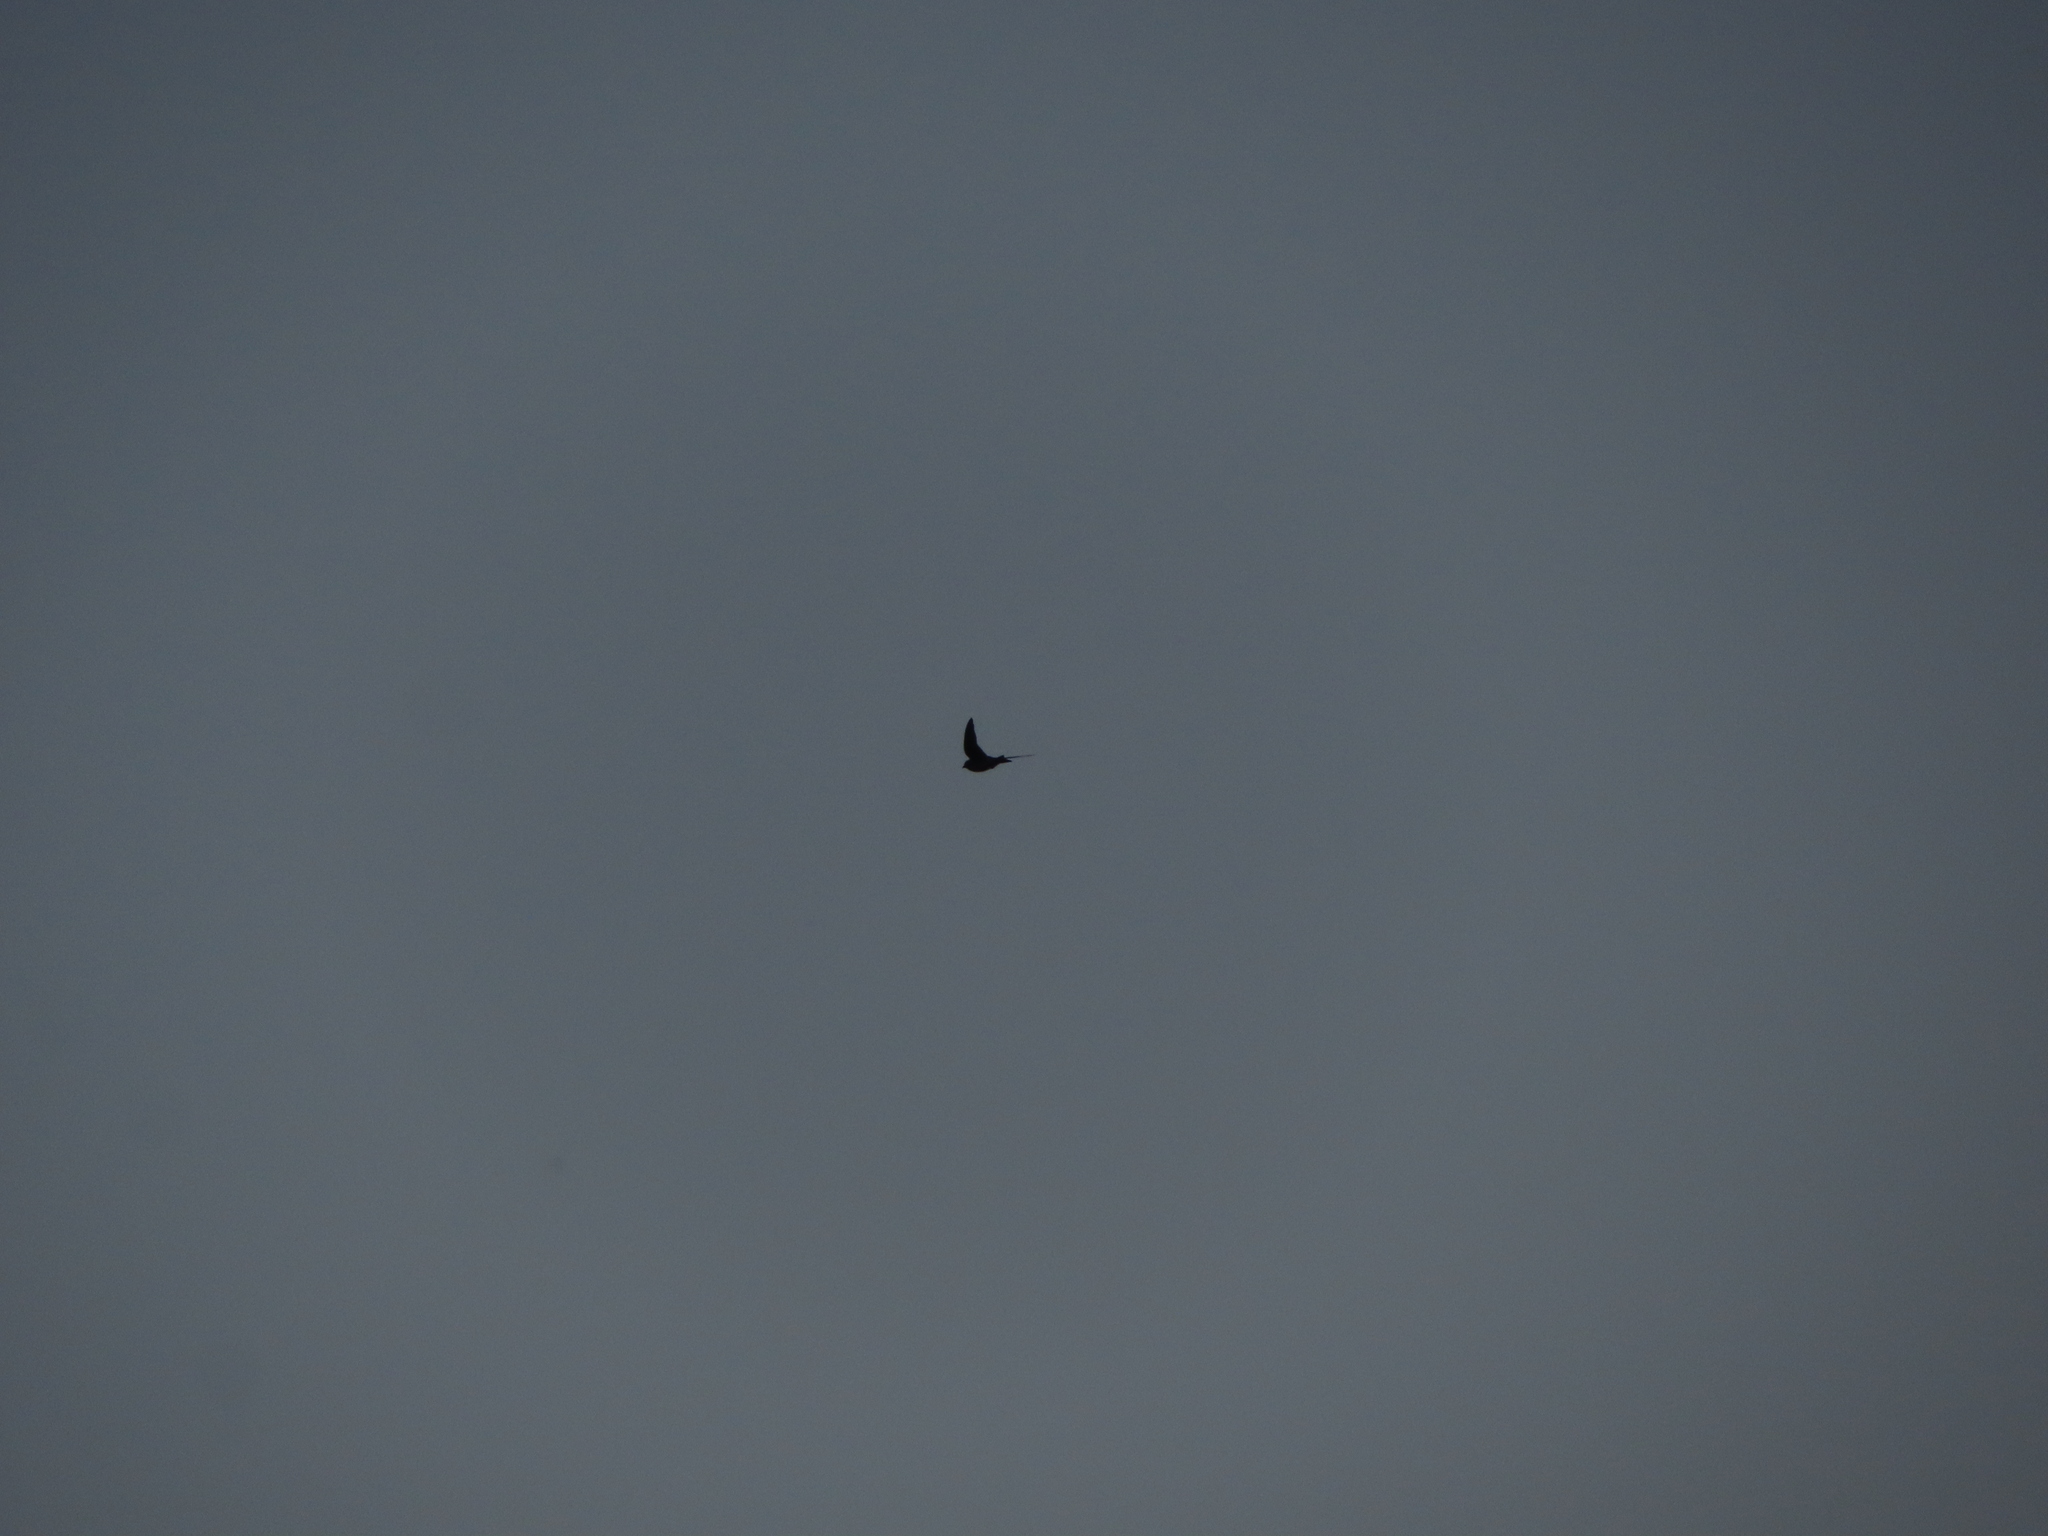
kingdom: Animalia
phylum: Chordata
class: Aves
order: Apodiformes
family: Apodidae
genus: Chaetura
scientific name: Chaetura pelagica
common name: Chimney swift
